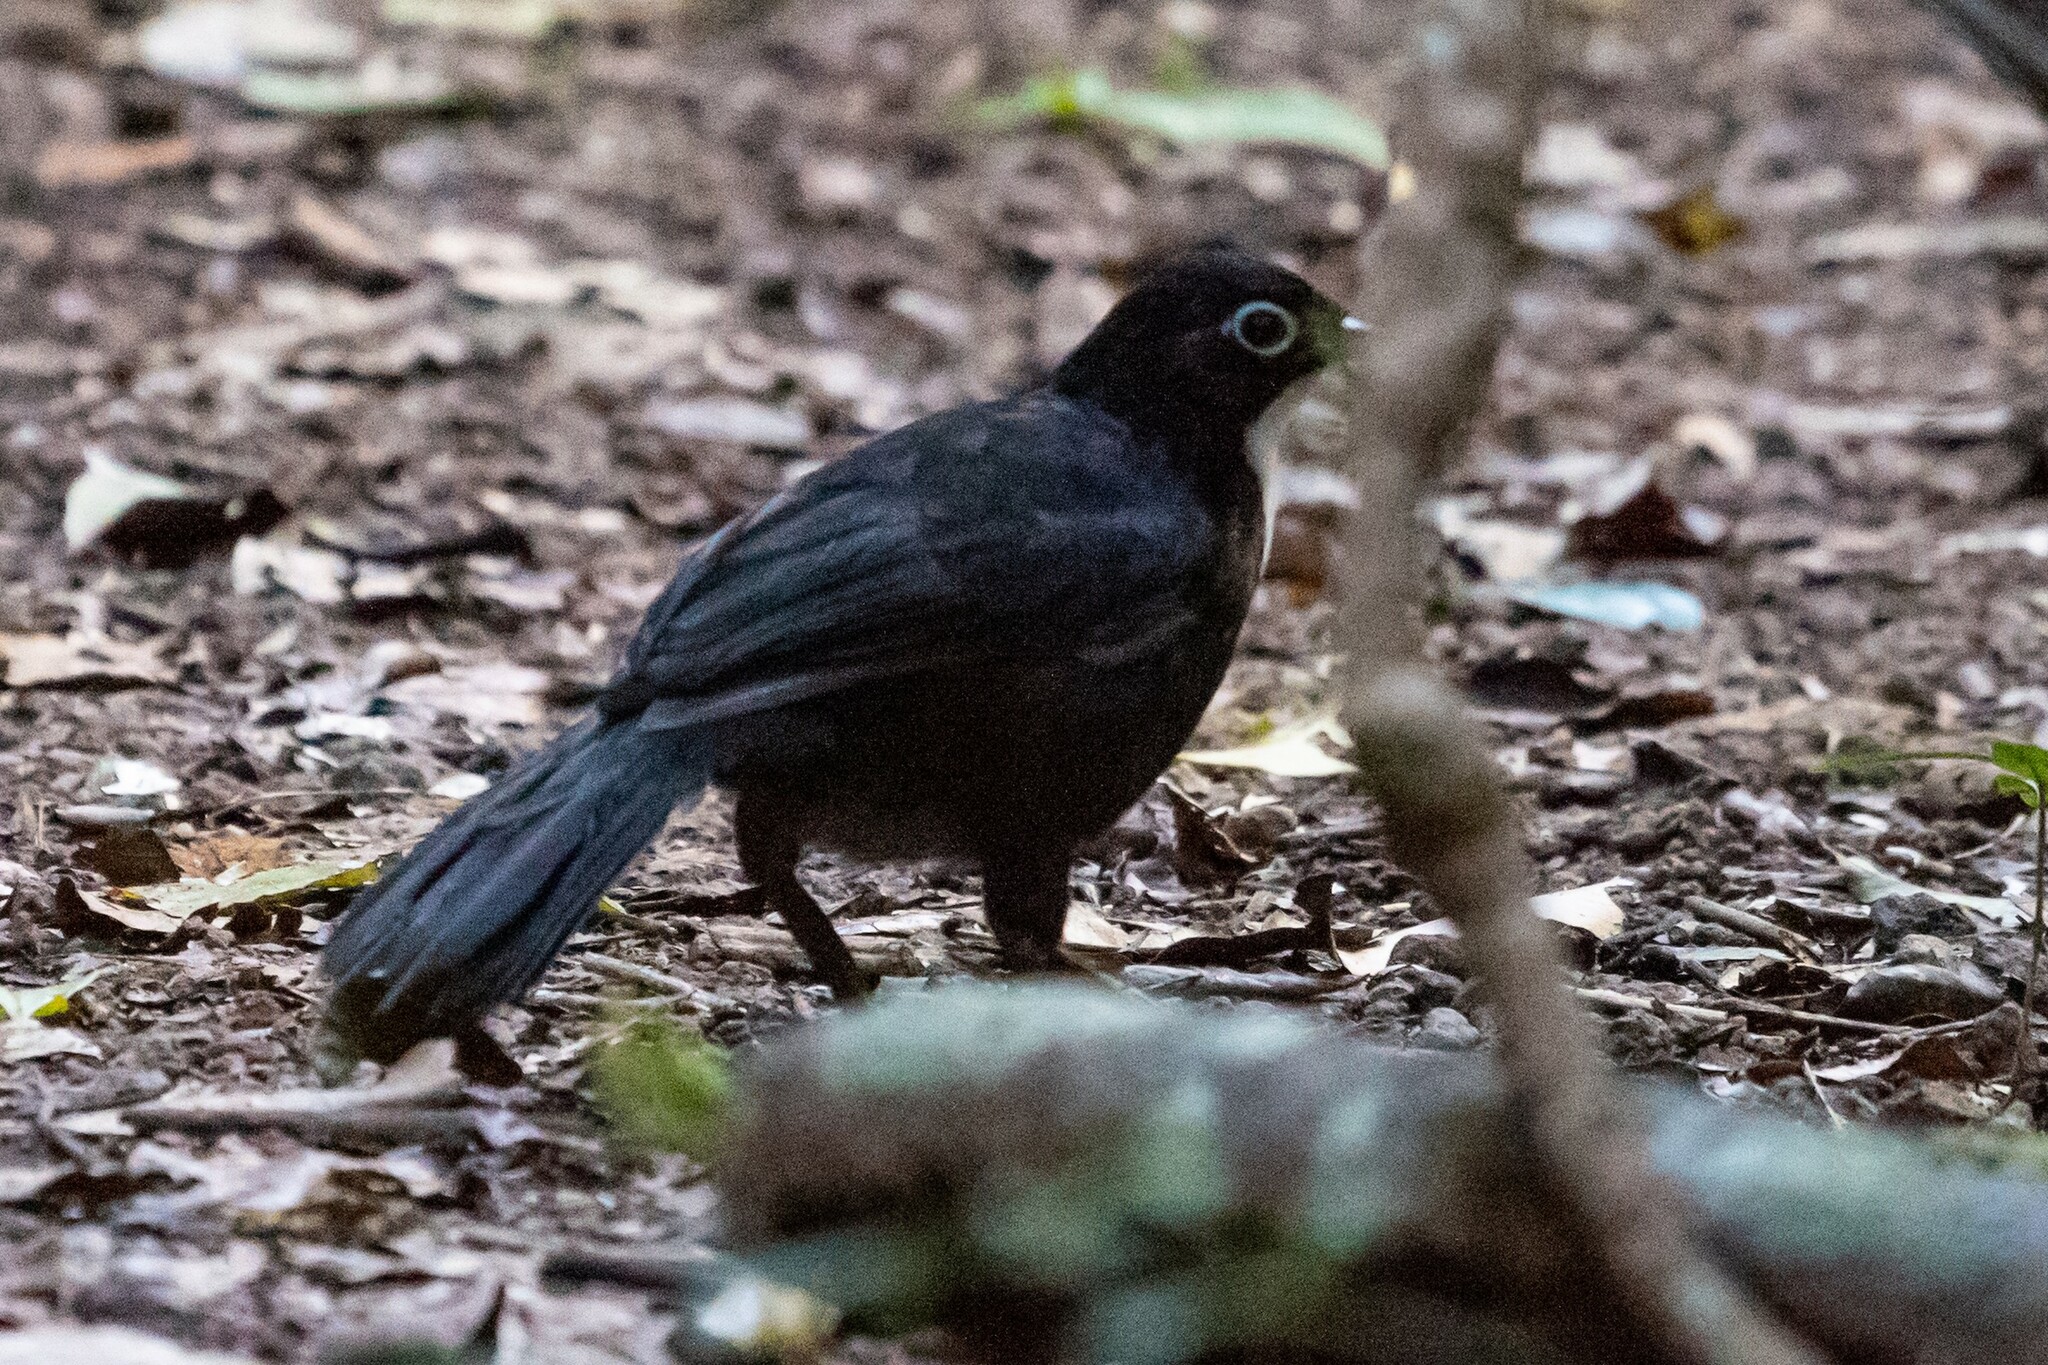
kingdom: Animalia
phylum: Chordata
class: Aves
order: Passeriformes
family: Orthonychidae
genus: Orthonyx
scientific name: Orthonyx spaldingii
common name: Chowchilla
